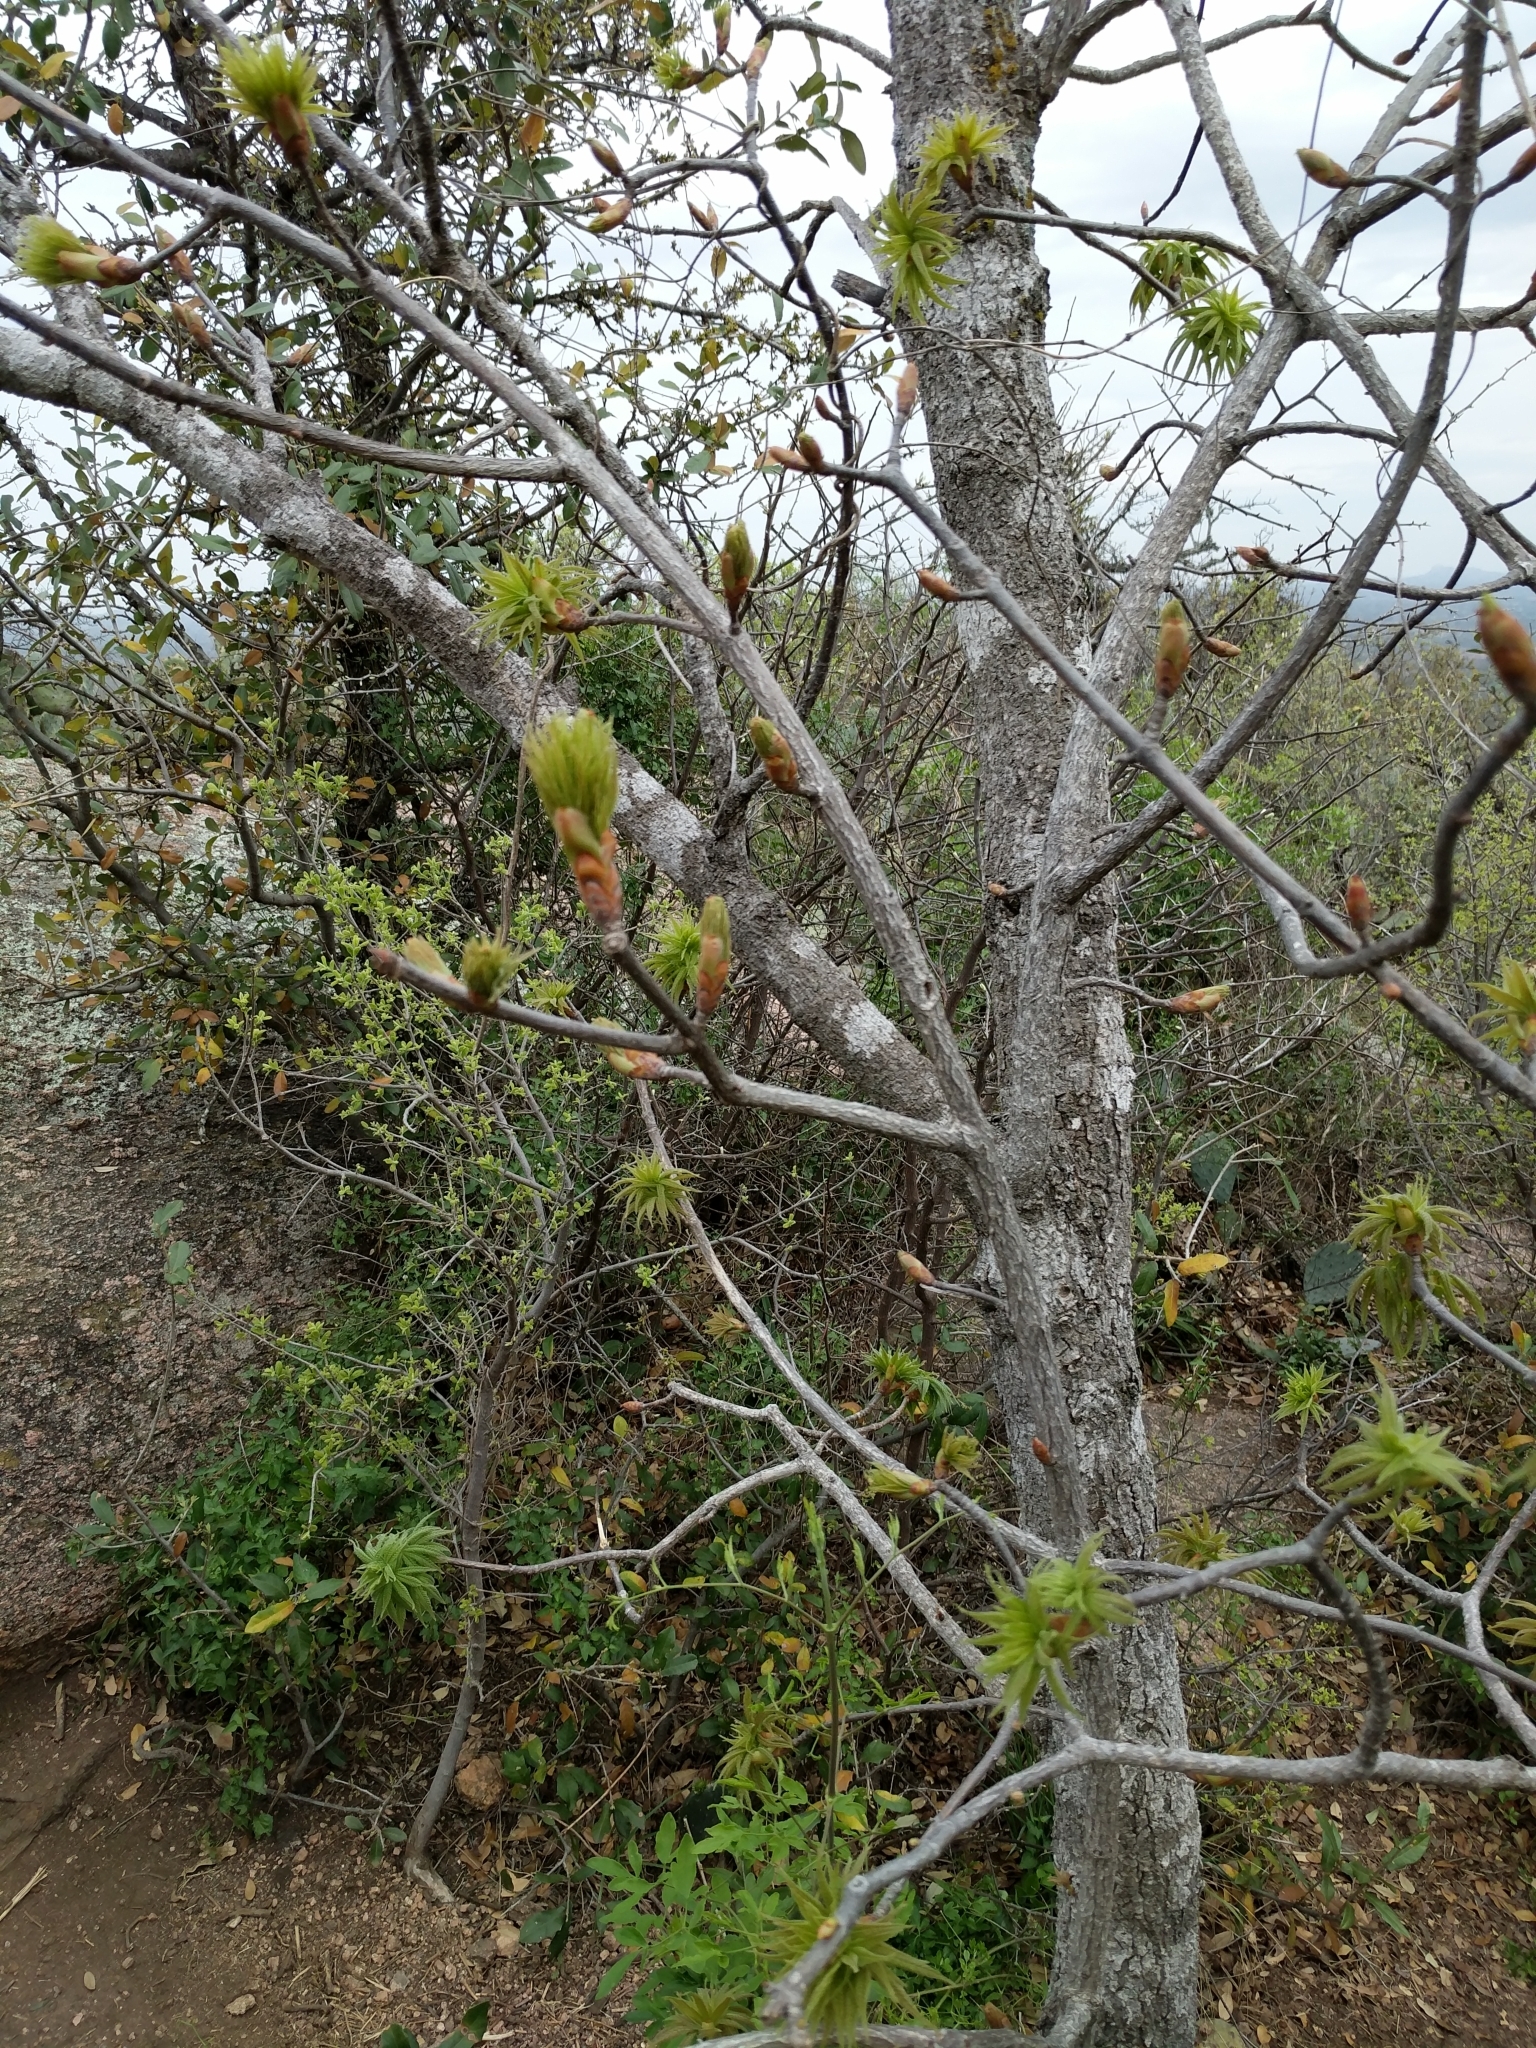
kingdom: Plantae
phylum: Tracheophyta
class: Magnoliopsida
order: Sapindales
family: Sapindaceae
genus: Aesculus
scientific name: Aesculus glabra
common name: Ohio buckeye
